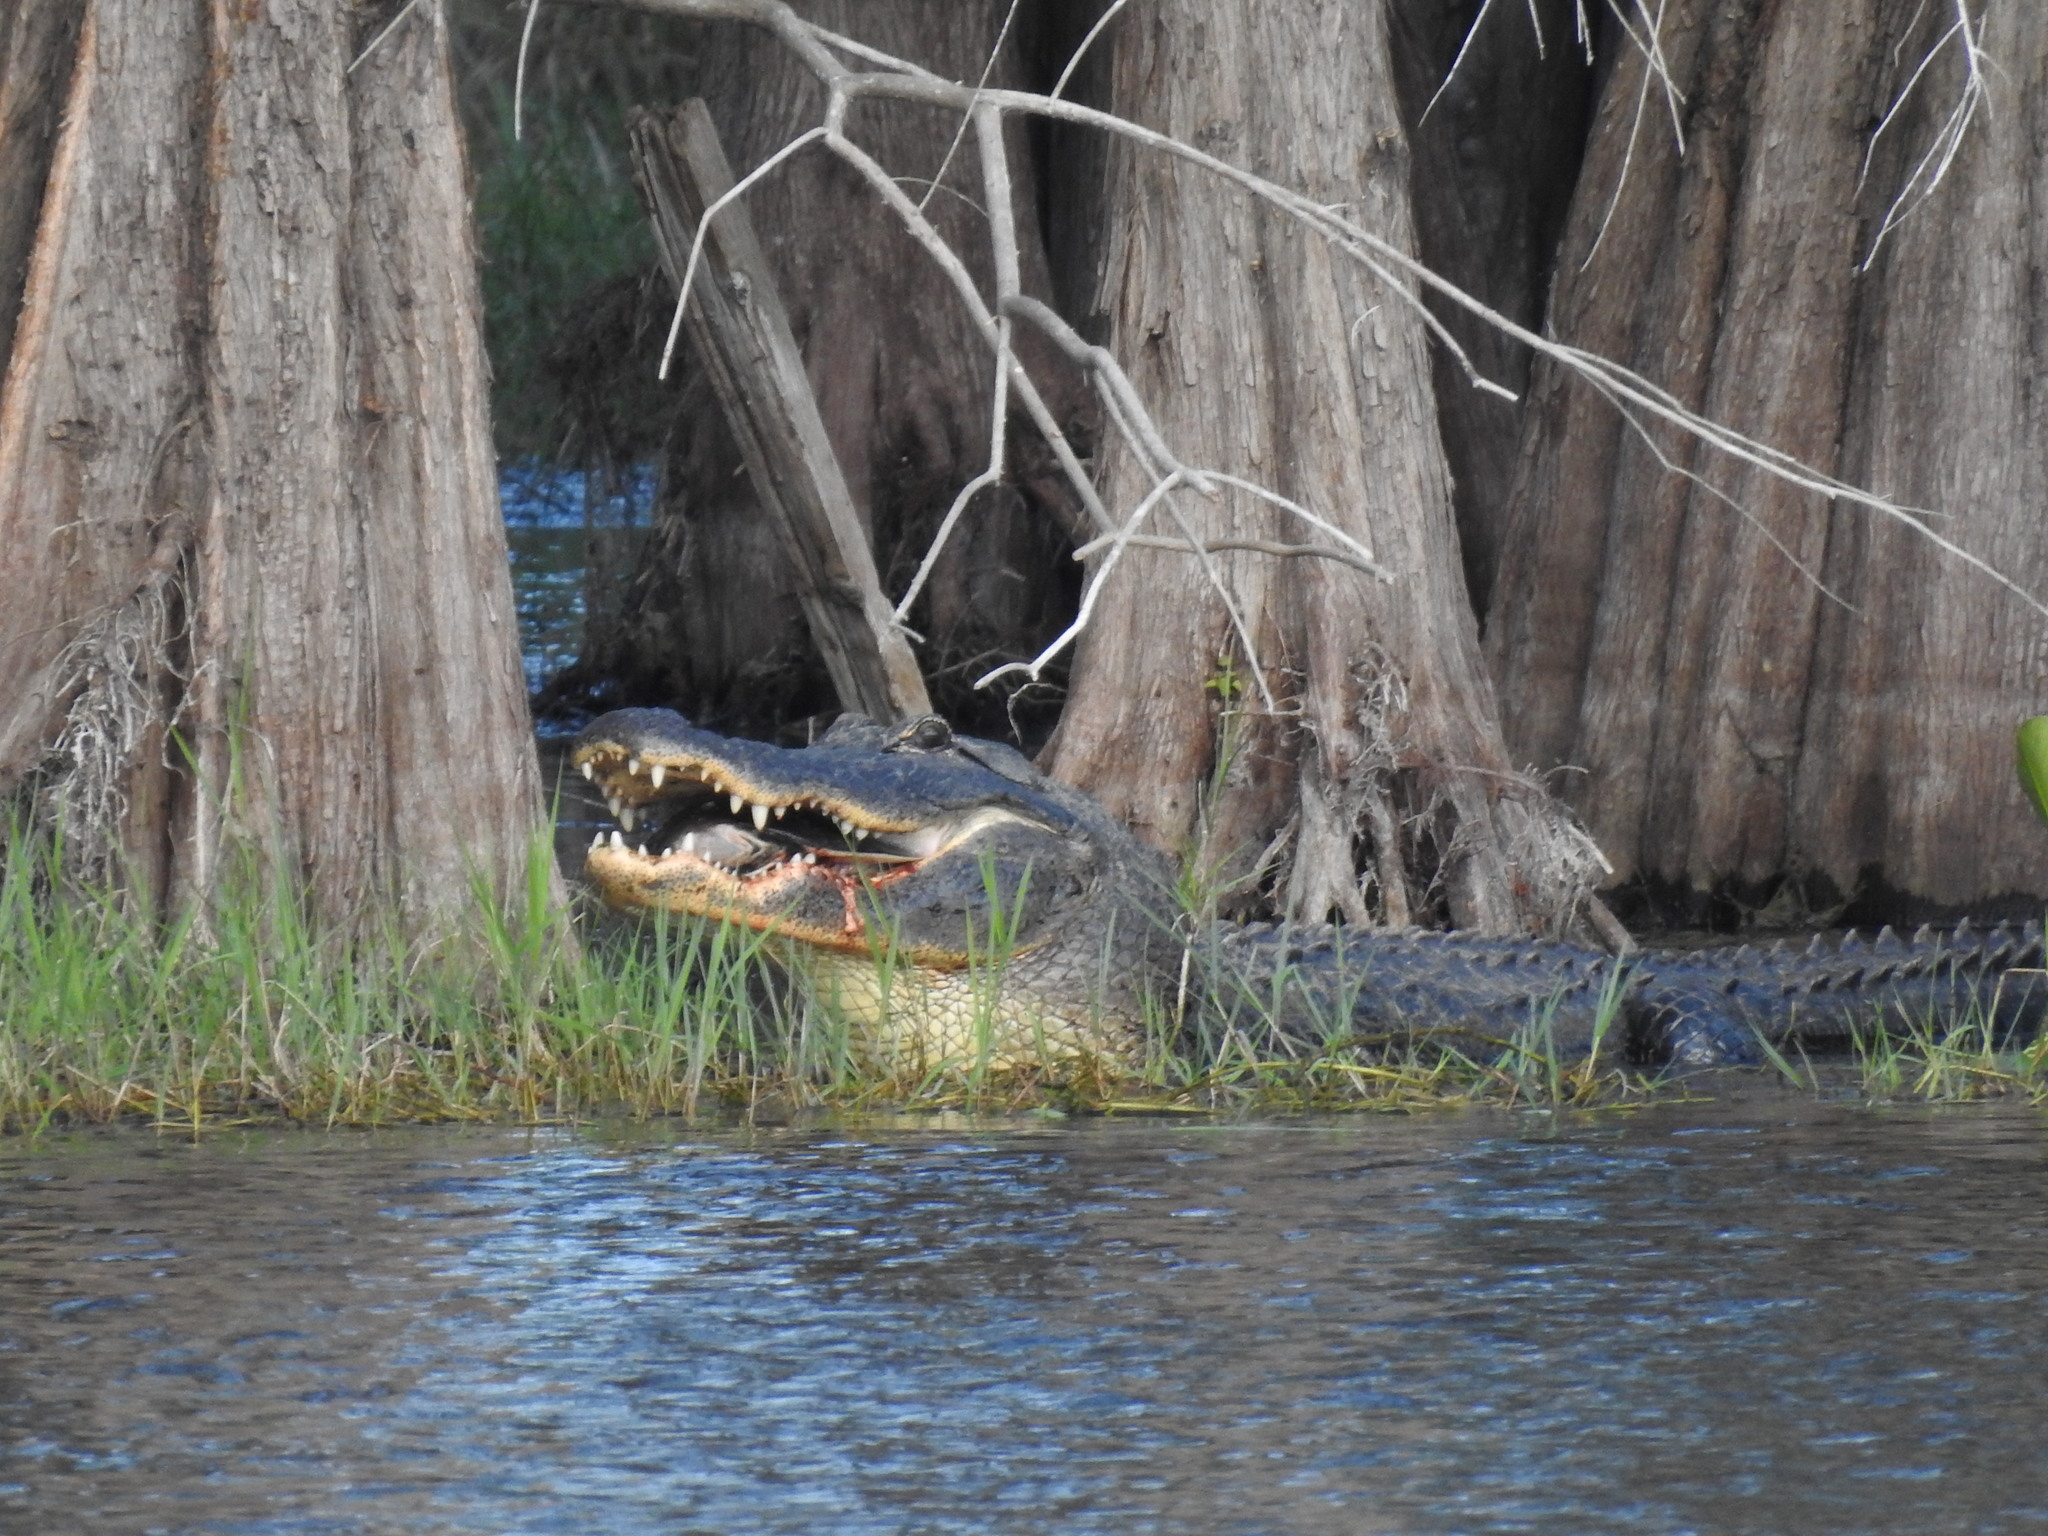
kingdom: Animalia
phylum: Chordata
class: Crocodylia
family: Alligatoridae
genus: Alligator
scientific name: Alligator mississippiensis
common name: American alligator
